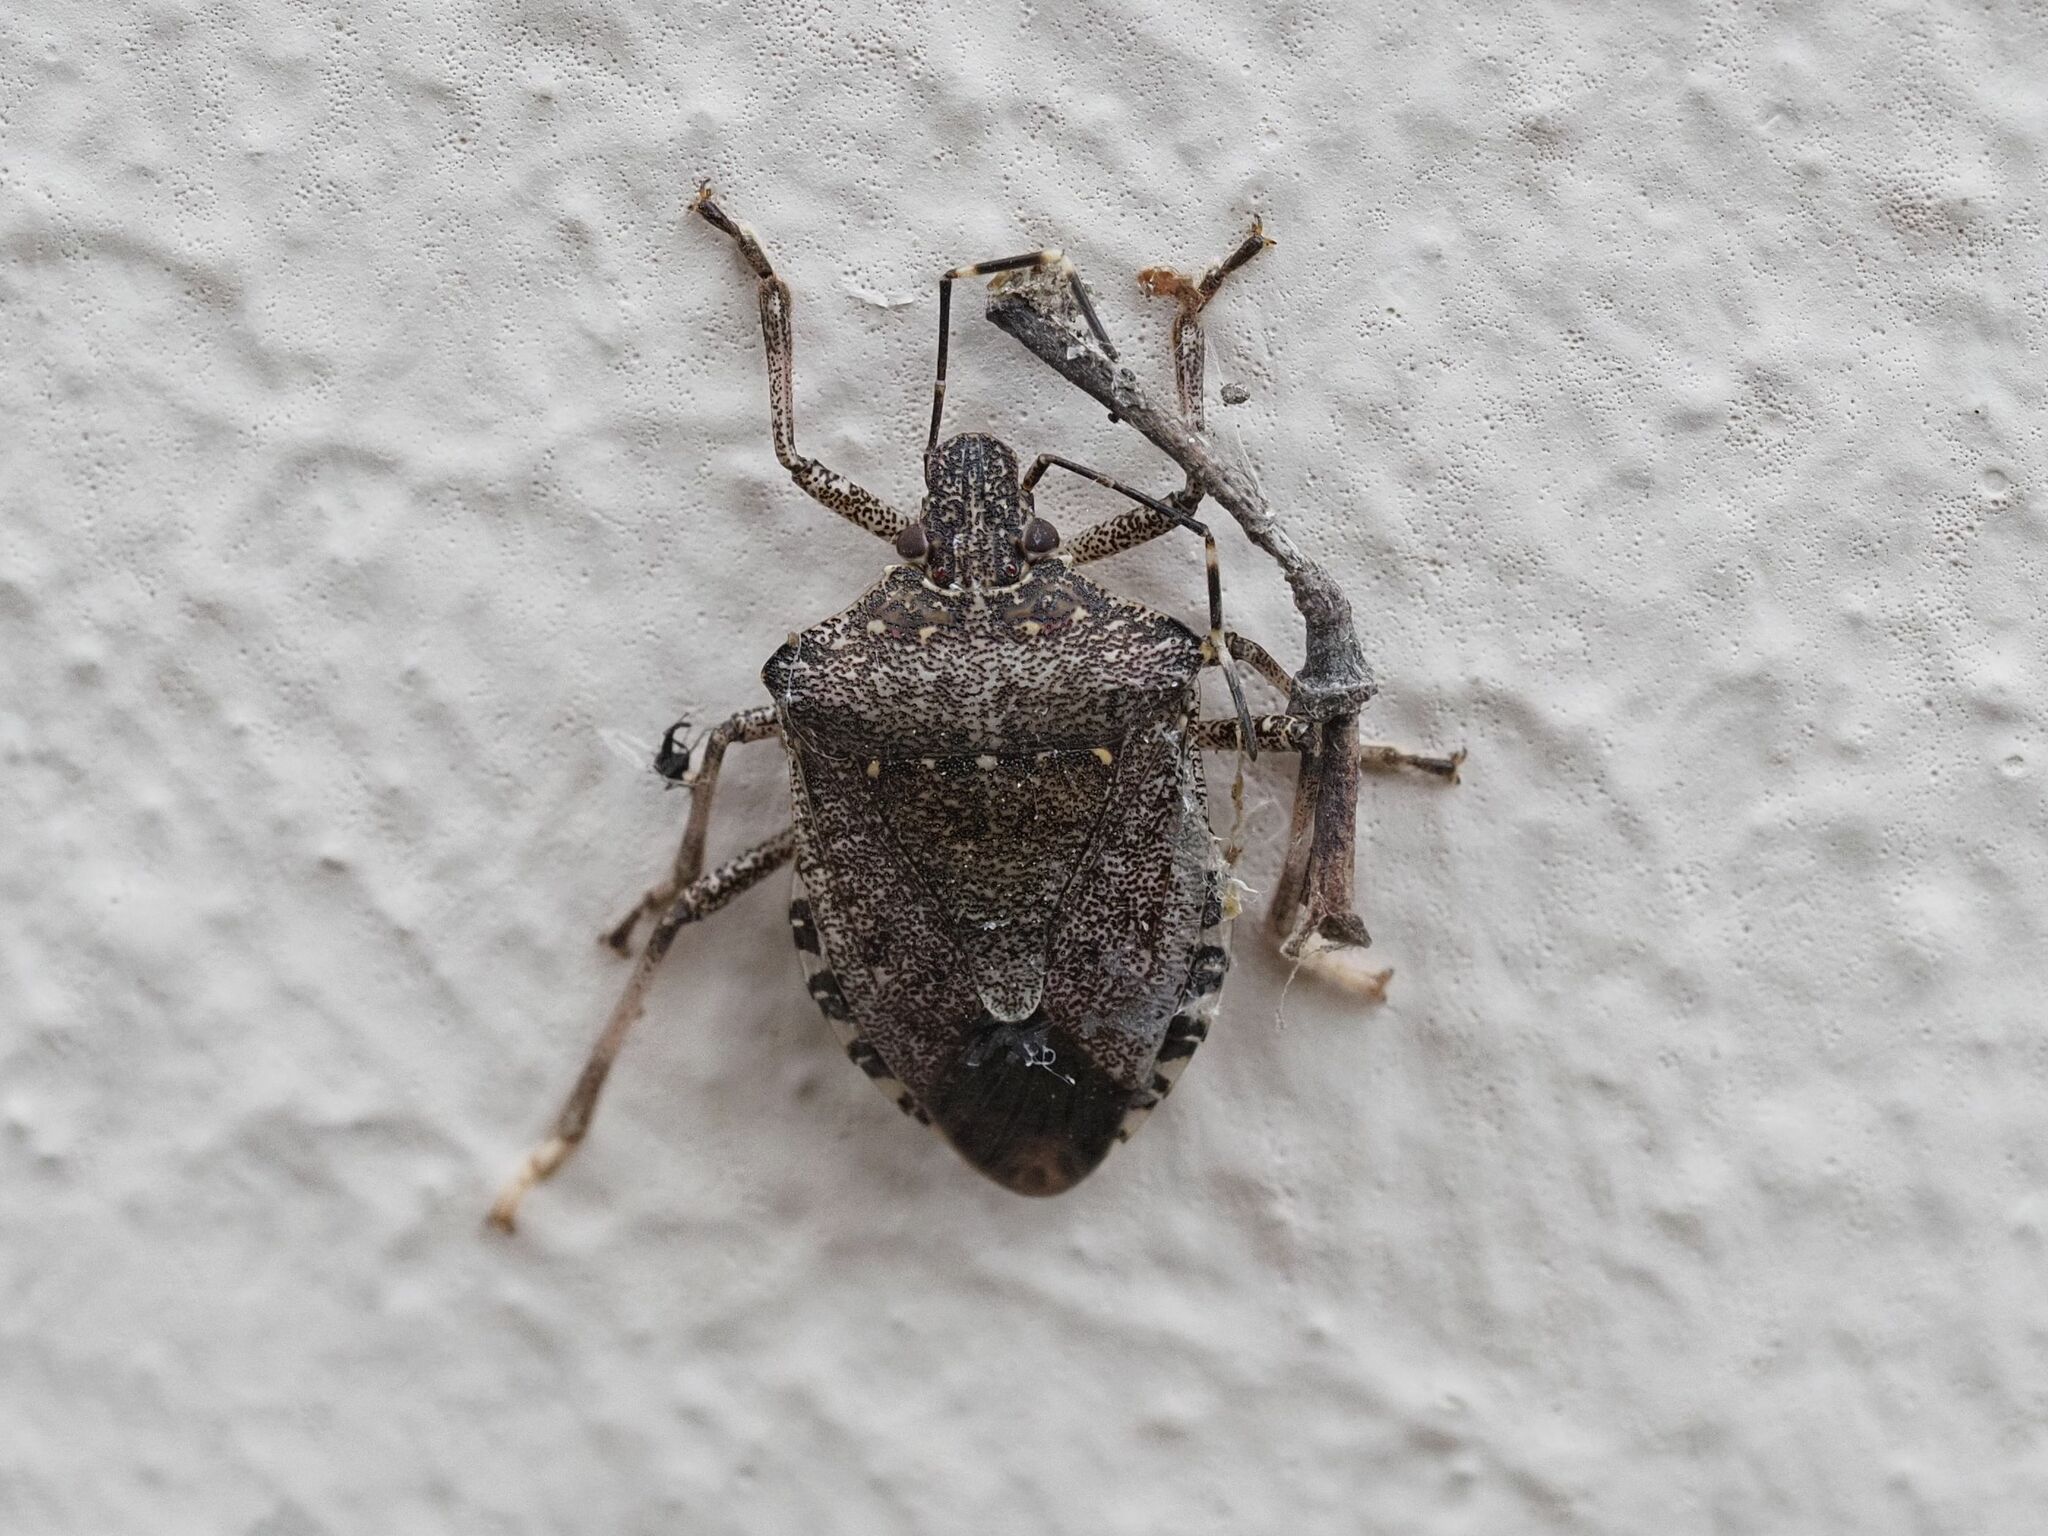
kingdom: Animalia
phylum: Arthropoda
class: Insecta
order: Hemiptera
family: Pentatomidae
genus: Halyomorpha
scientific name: Halyomorpha halys
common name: Brown marmorated stink bug
